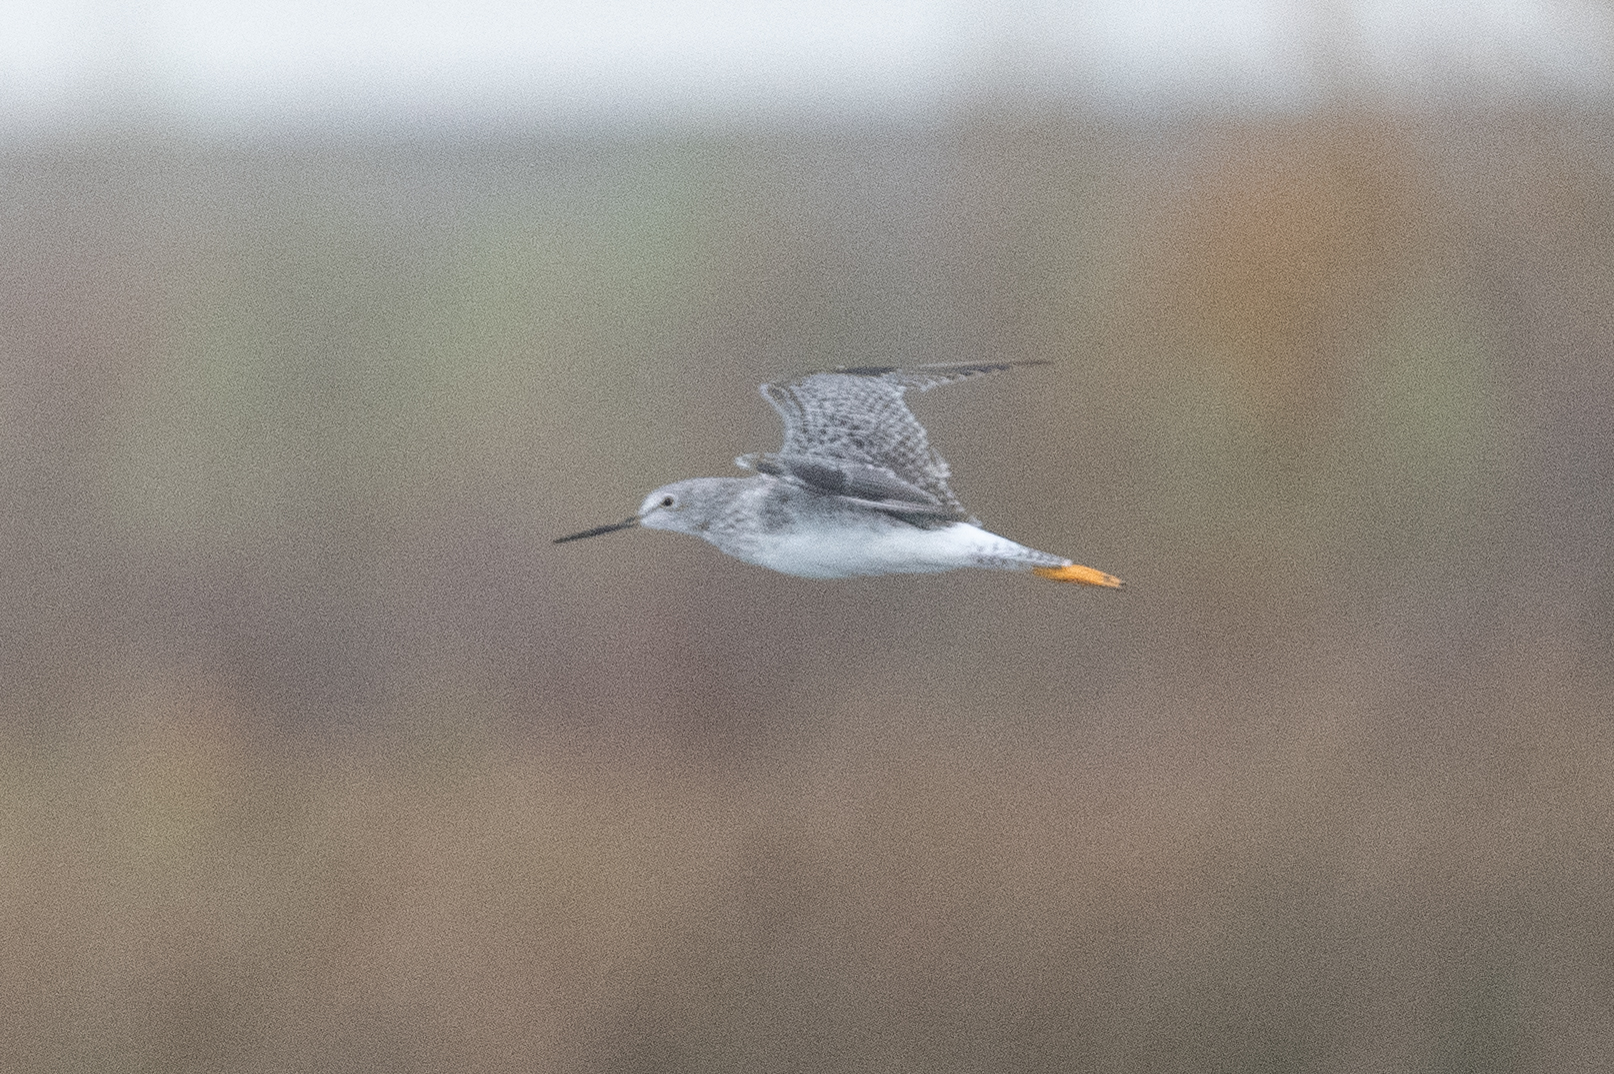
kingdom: Animalia
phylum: Chordata
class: Aves
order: Charadriiformes
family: Scolopacidae
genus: Tringa
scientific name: Tringa melanoleuca
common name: Greater yellowlegs
